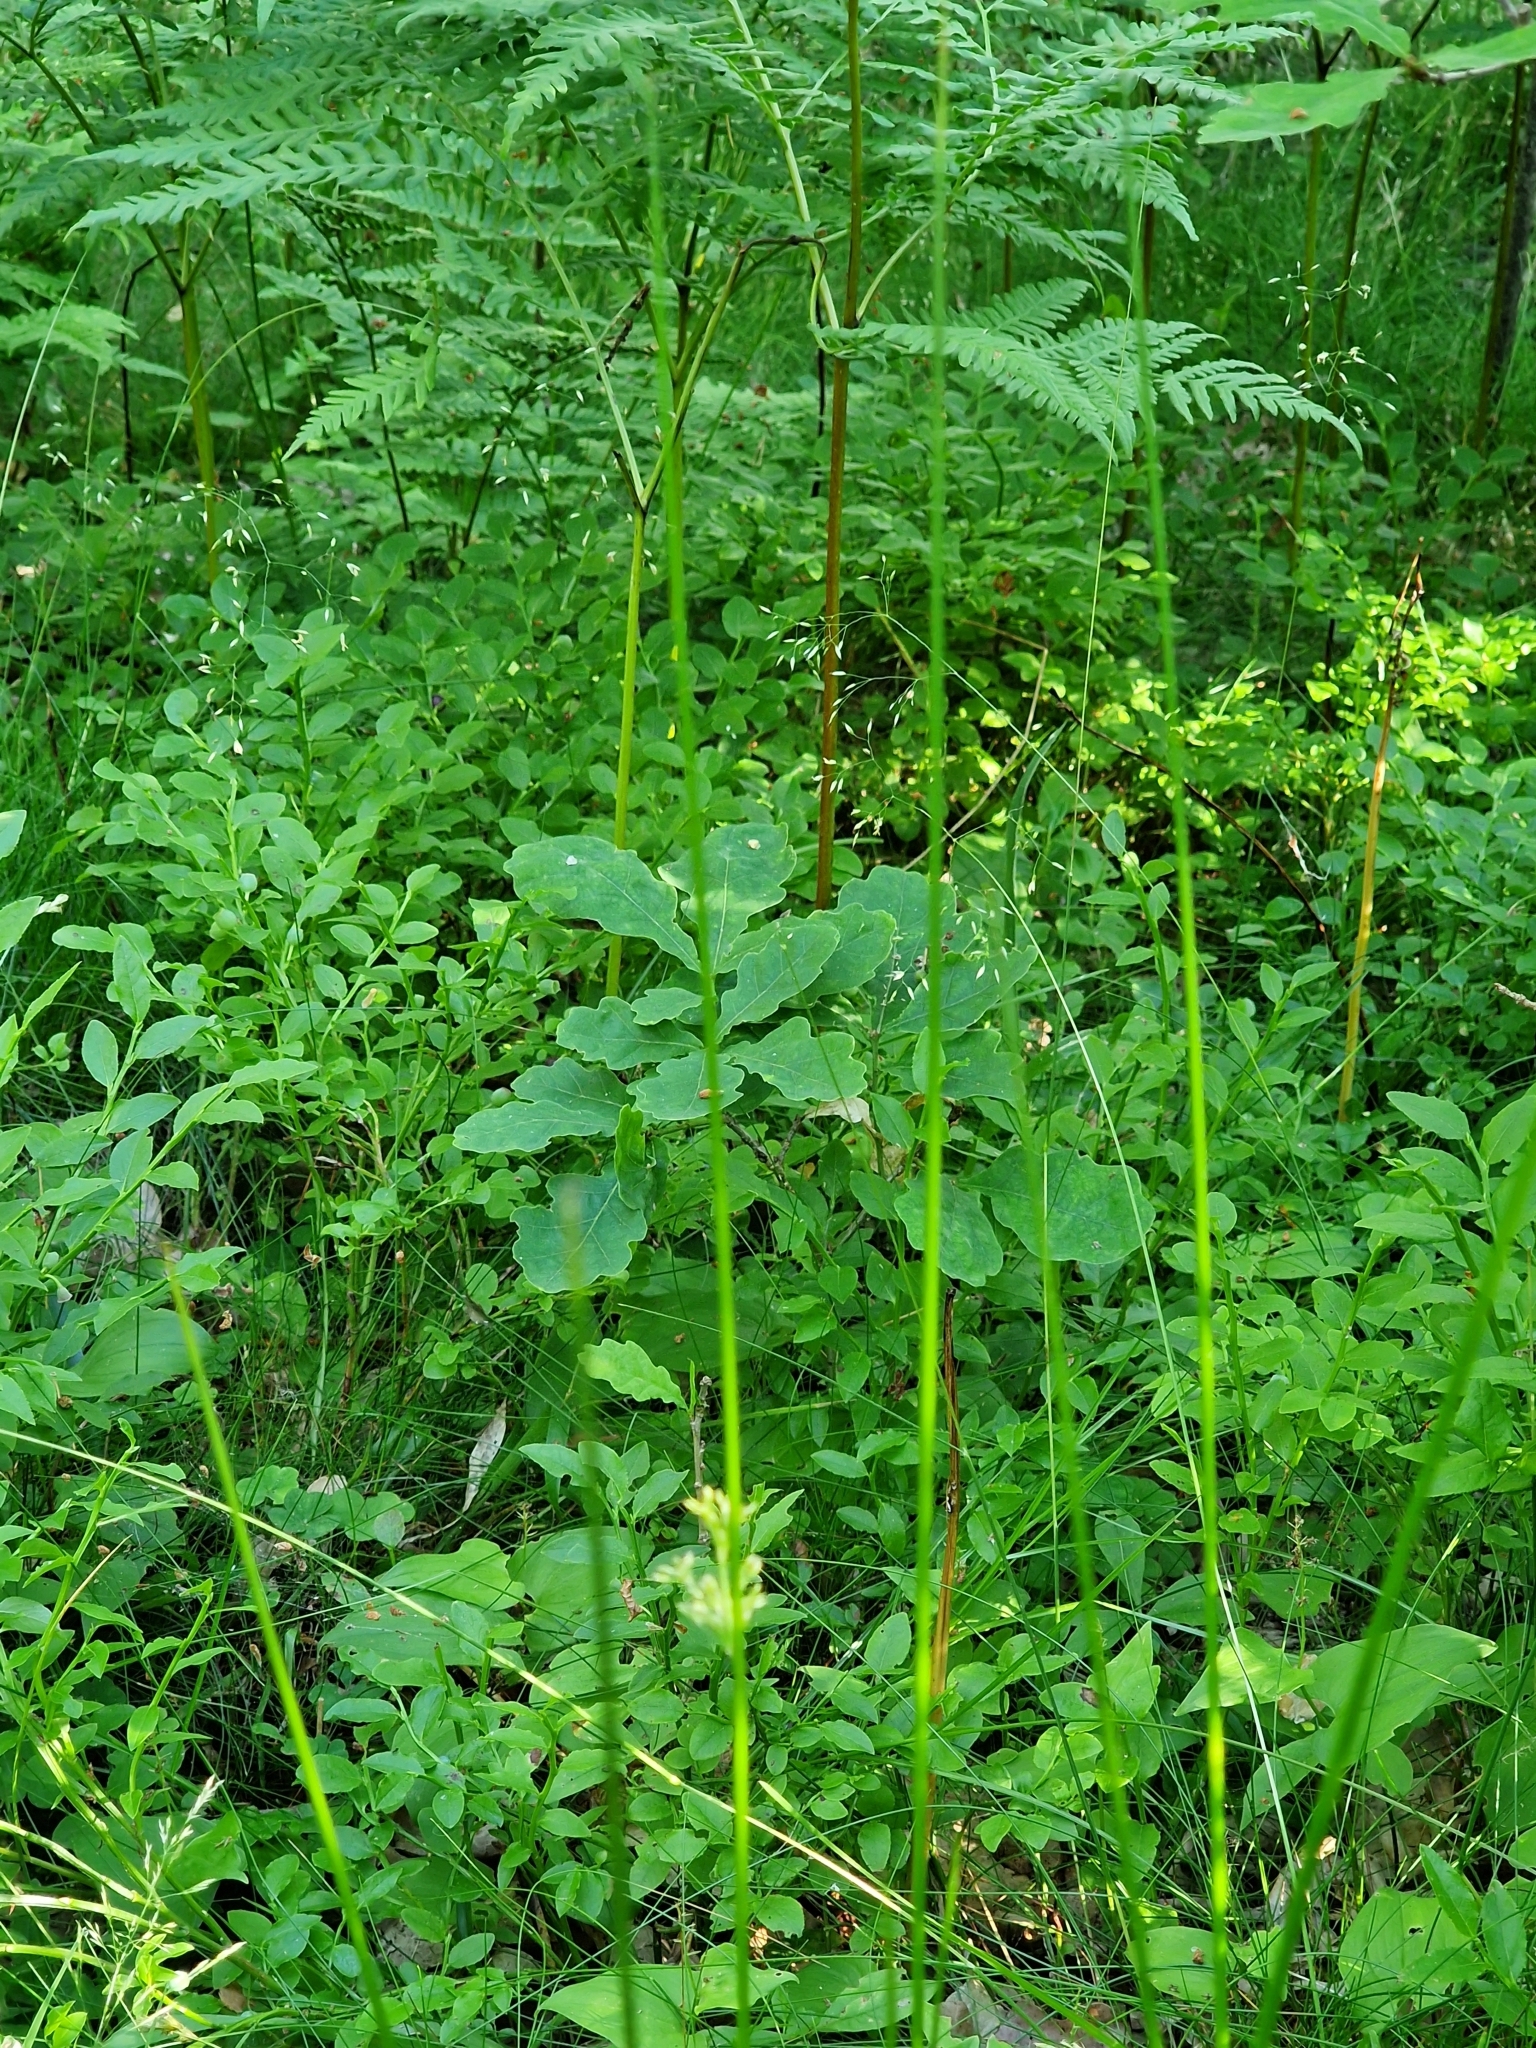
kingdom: Plantae
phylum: Tracheophyta
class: Liliopsida
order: Poales
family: Juncaceae
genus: Juncus
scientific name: Juncus effusus
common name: Soft rush
